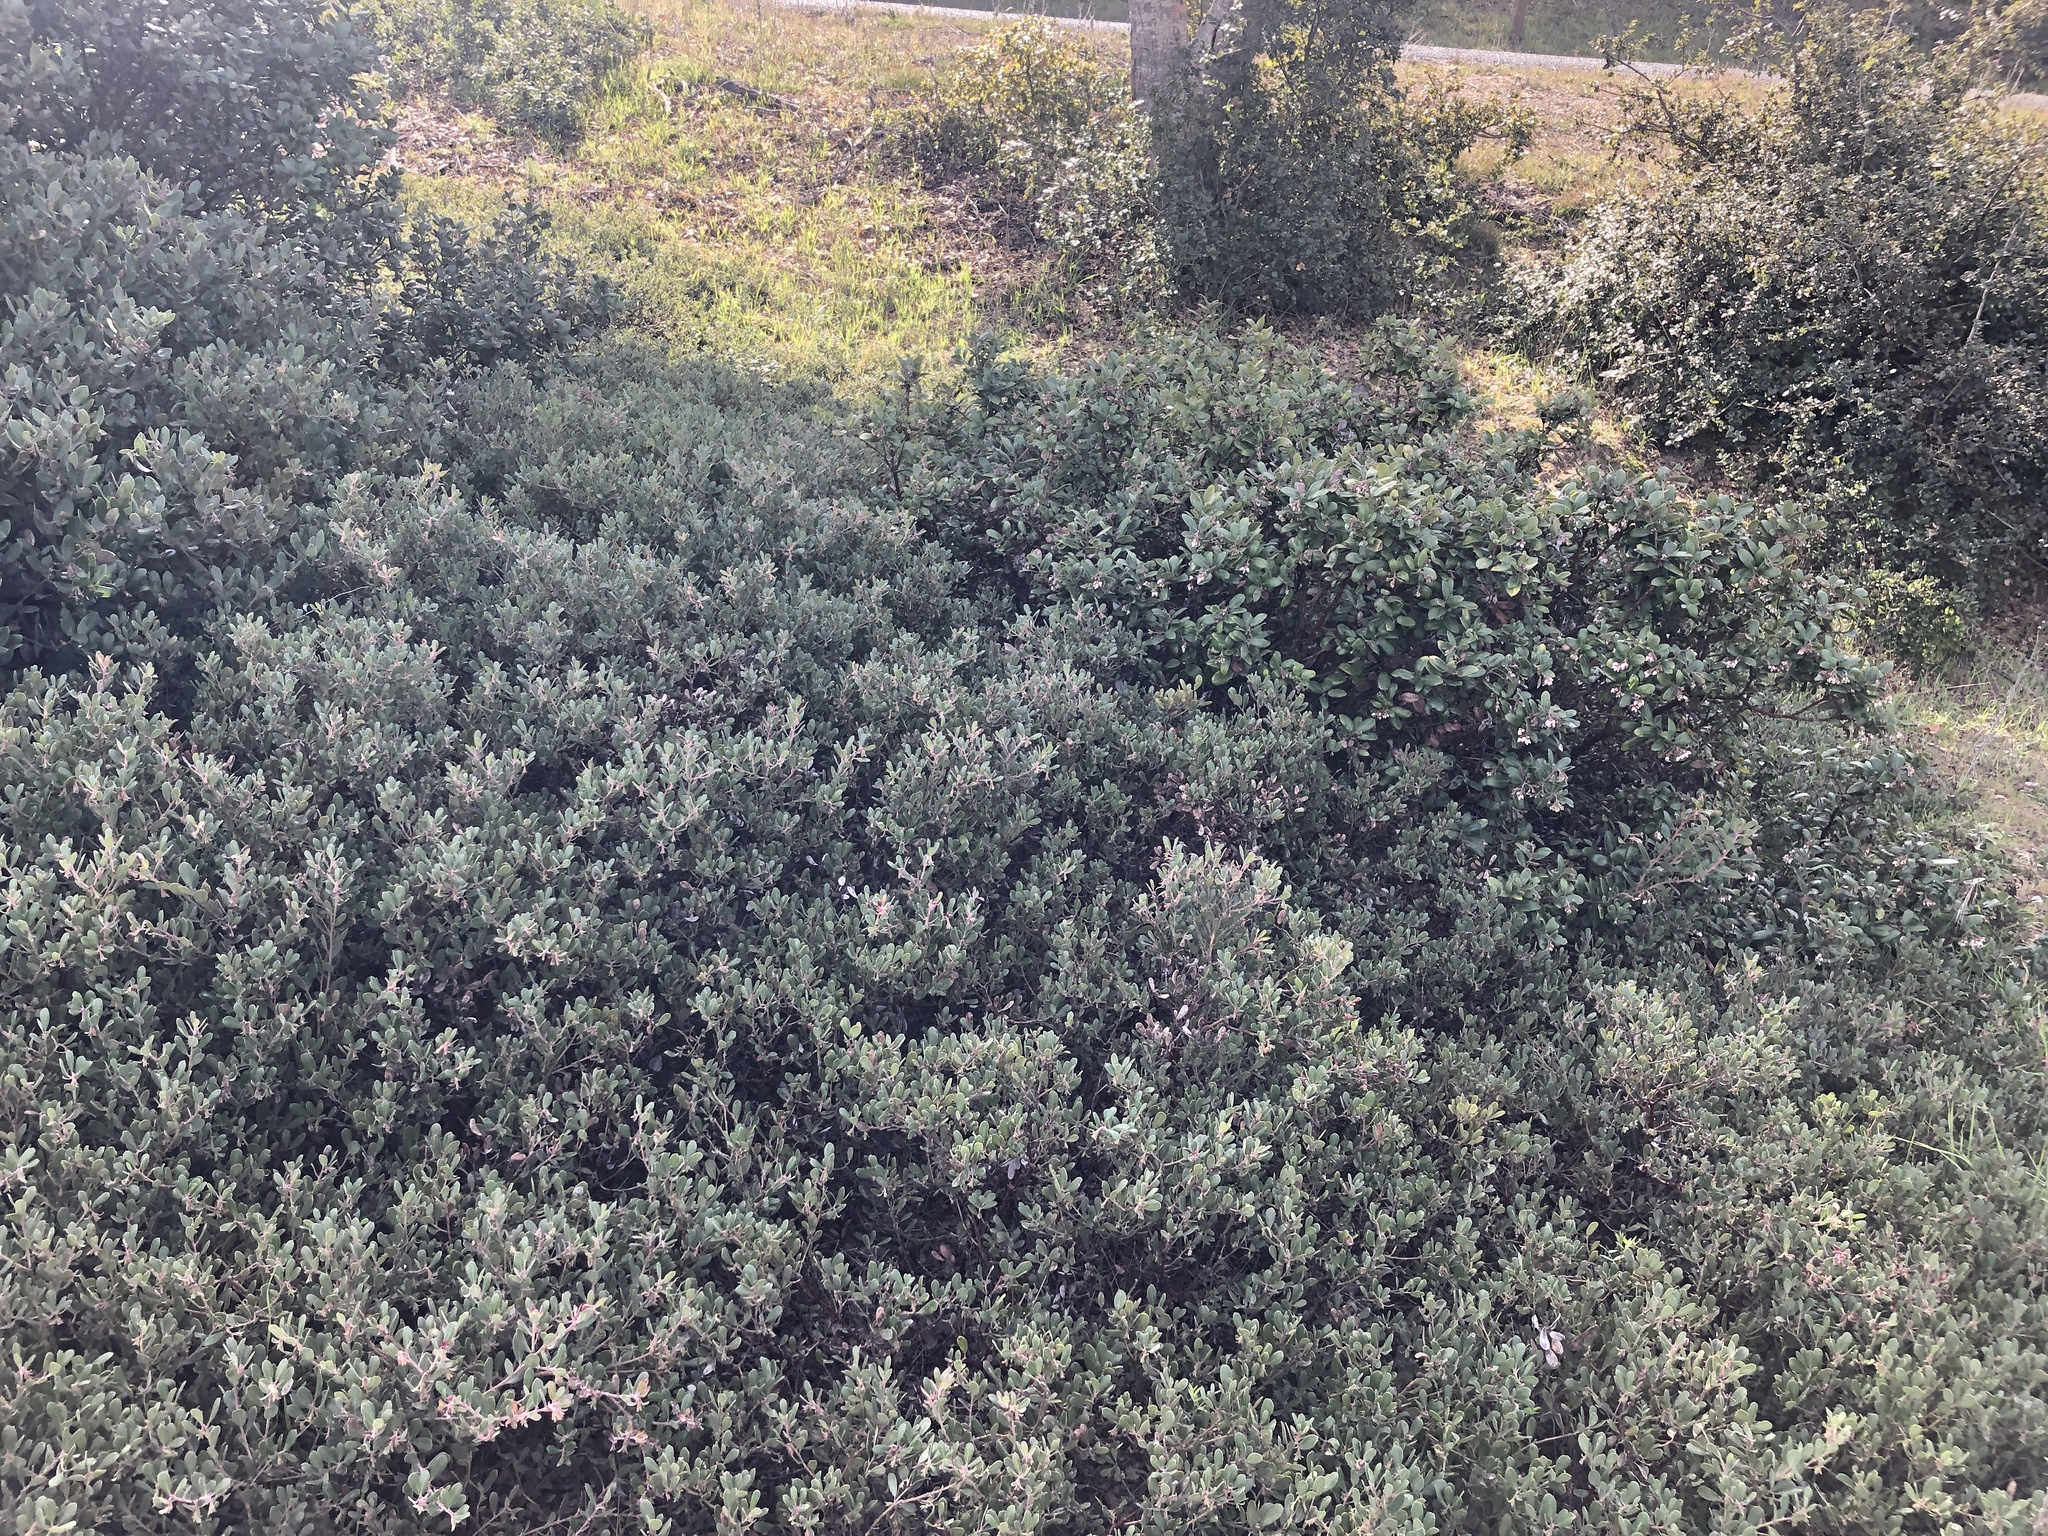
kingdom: Plantae
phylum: Tracheophyta
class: Magnoliopsida
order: Ericales
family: Ericaceae
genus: Arctostaphylos
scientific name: Arctostaphylos pumila
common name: Sandmat manzanita
